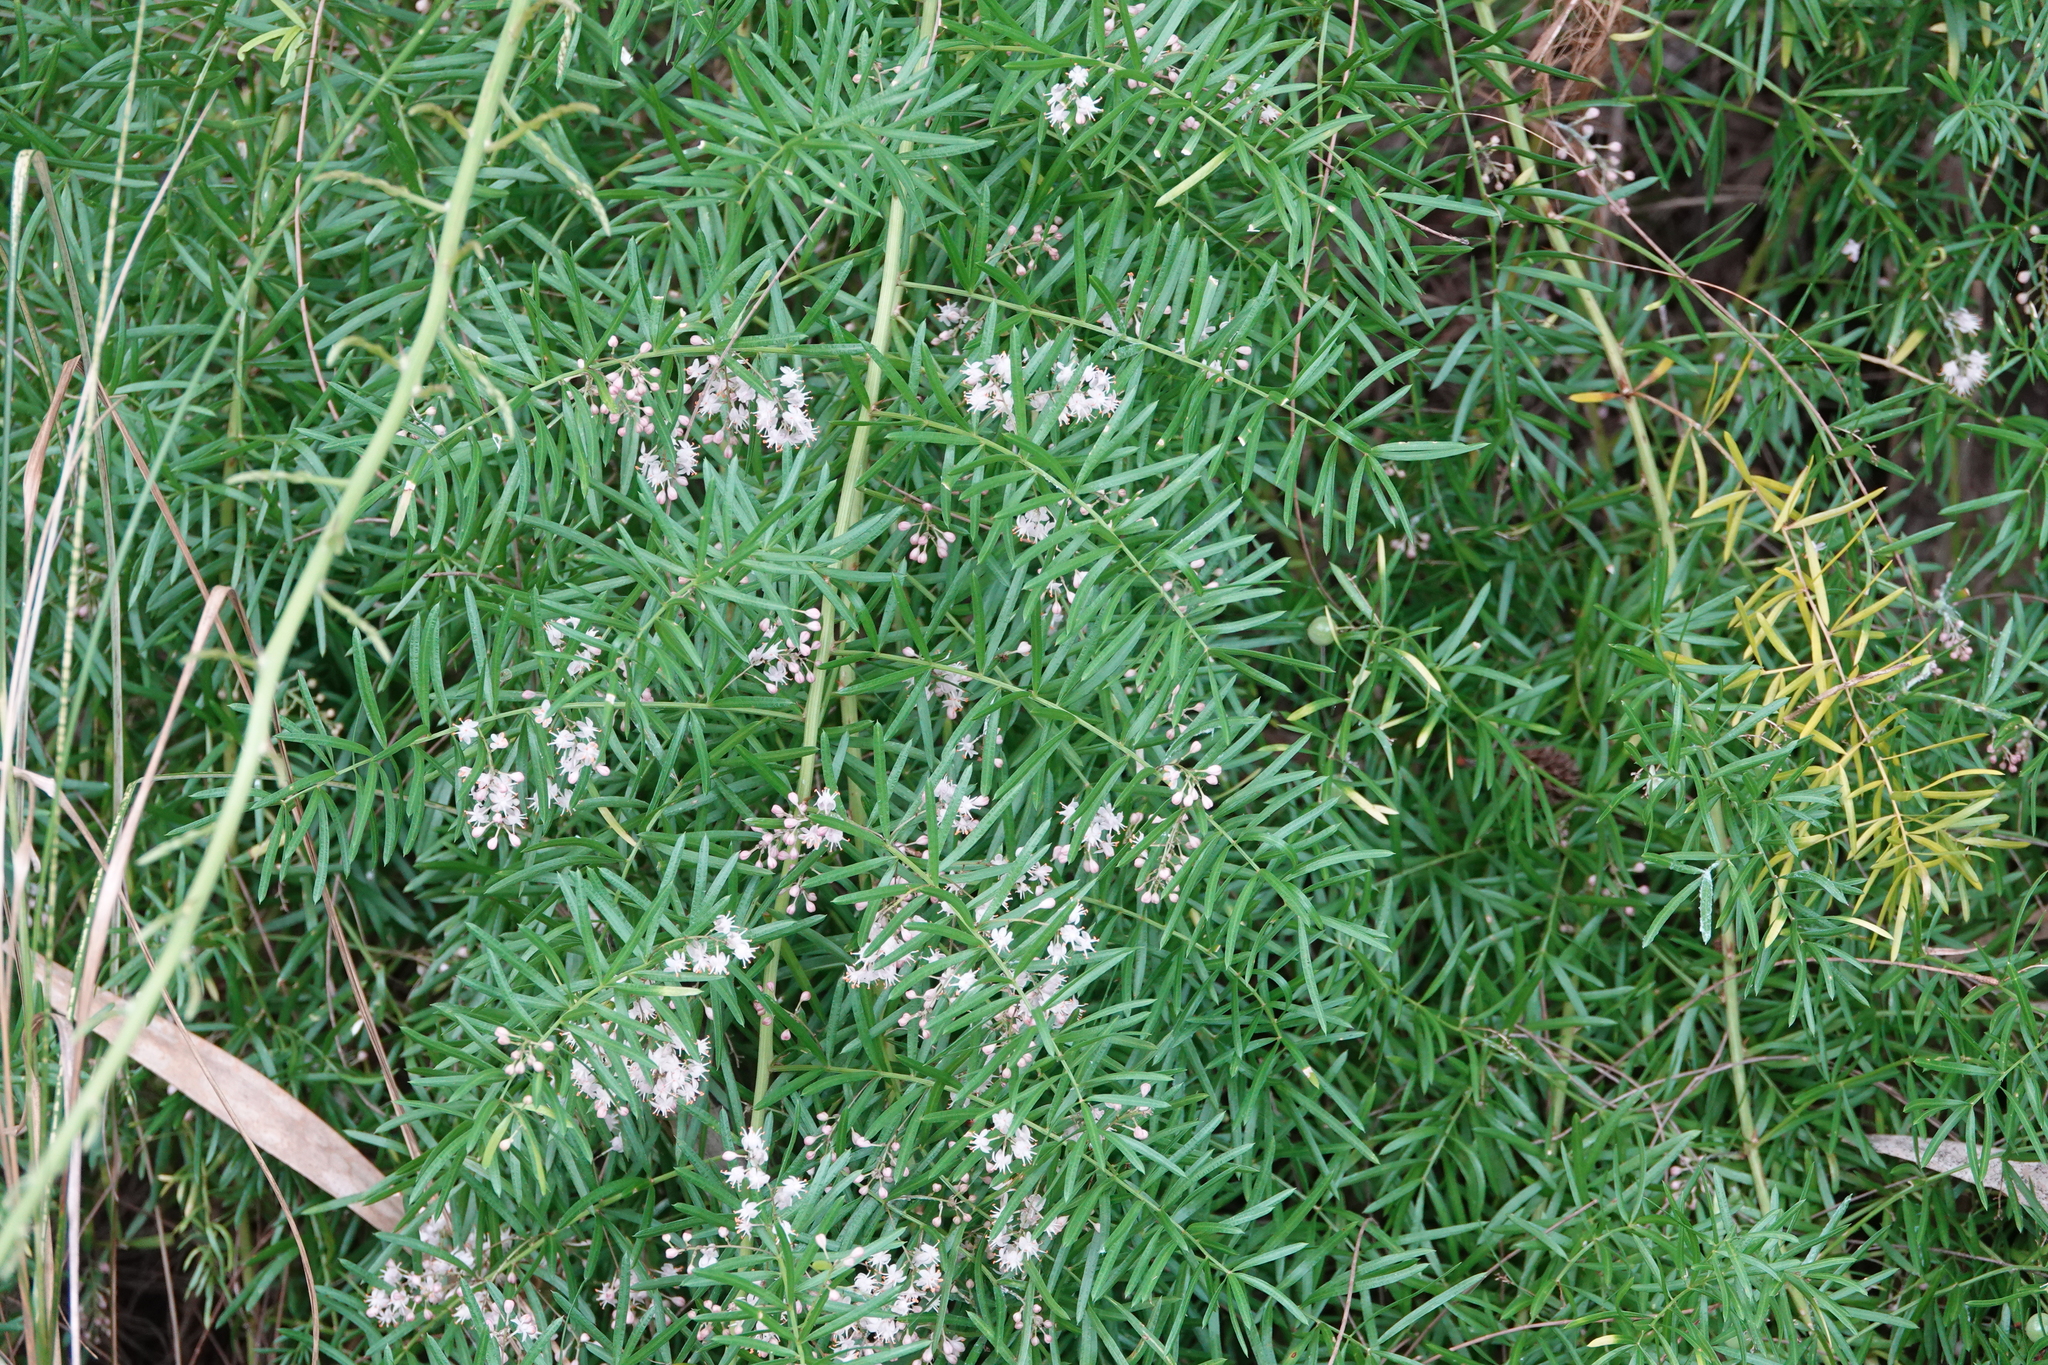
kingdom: Plantae
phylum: Tracheophyta
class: Liliopsida
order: Asparagales
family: Asparagaceae
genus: Asparagus
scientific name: Asparagus aethiopicus
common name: Sprenger's asparagus fern
